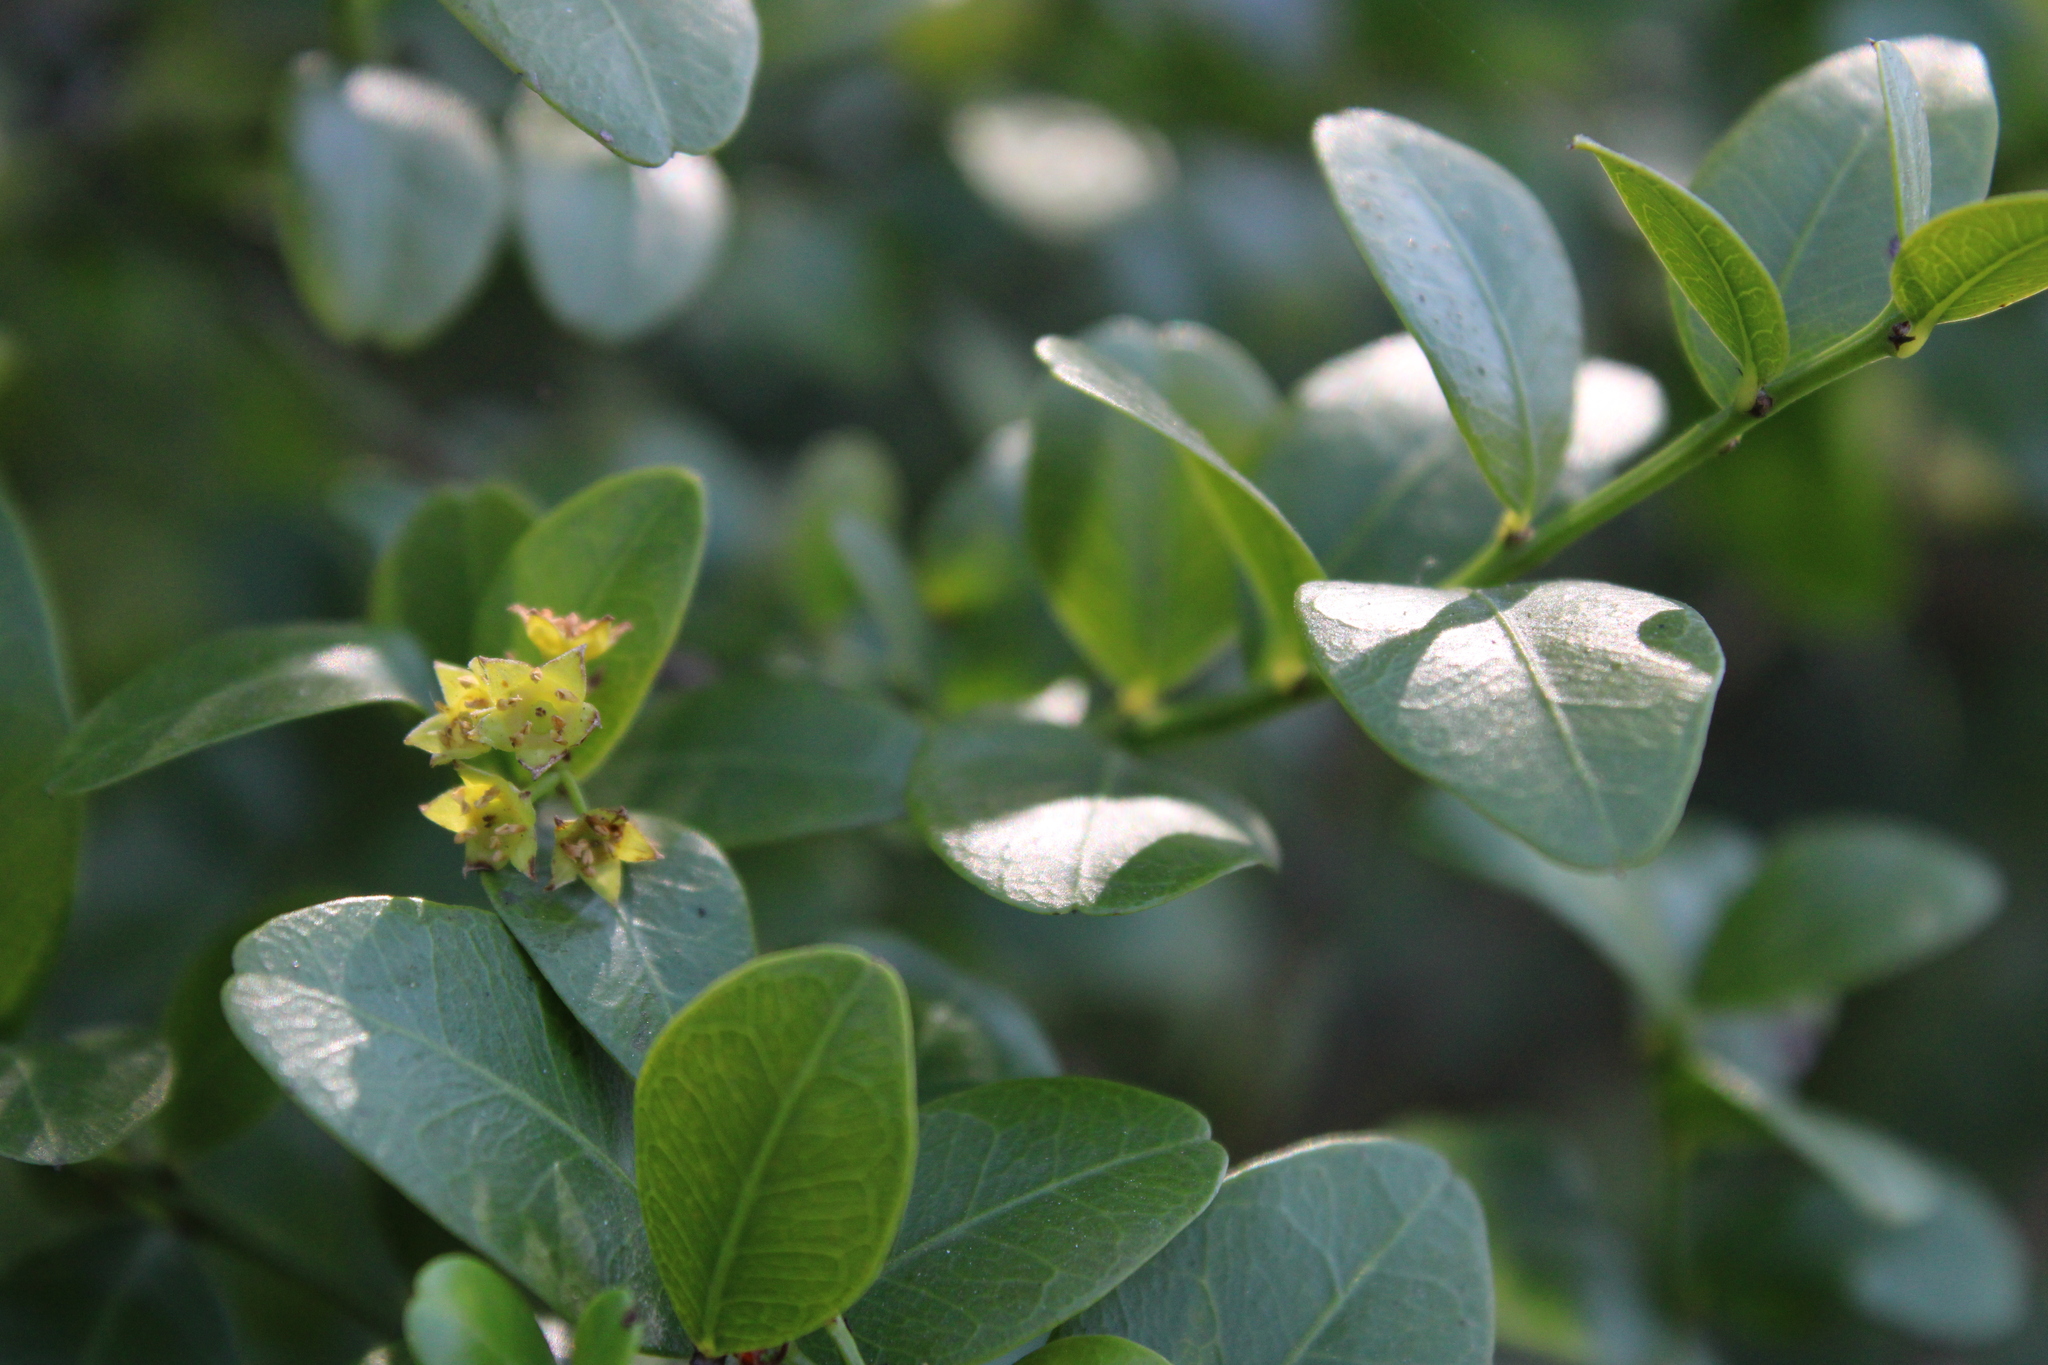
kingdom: Plantae
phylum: Tracheophyta
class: Magnoliopsida
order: Rosales
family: Rhamnaceae
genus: Scutia
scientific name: Scutia buxifolia
